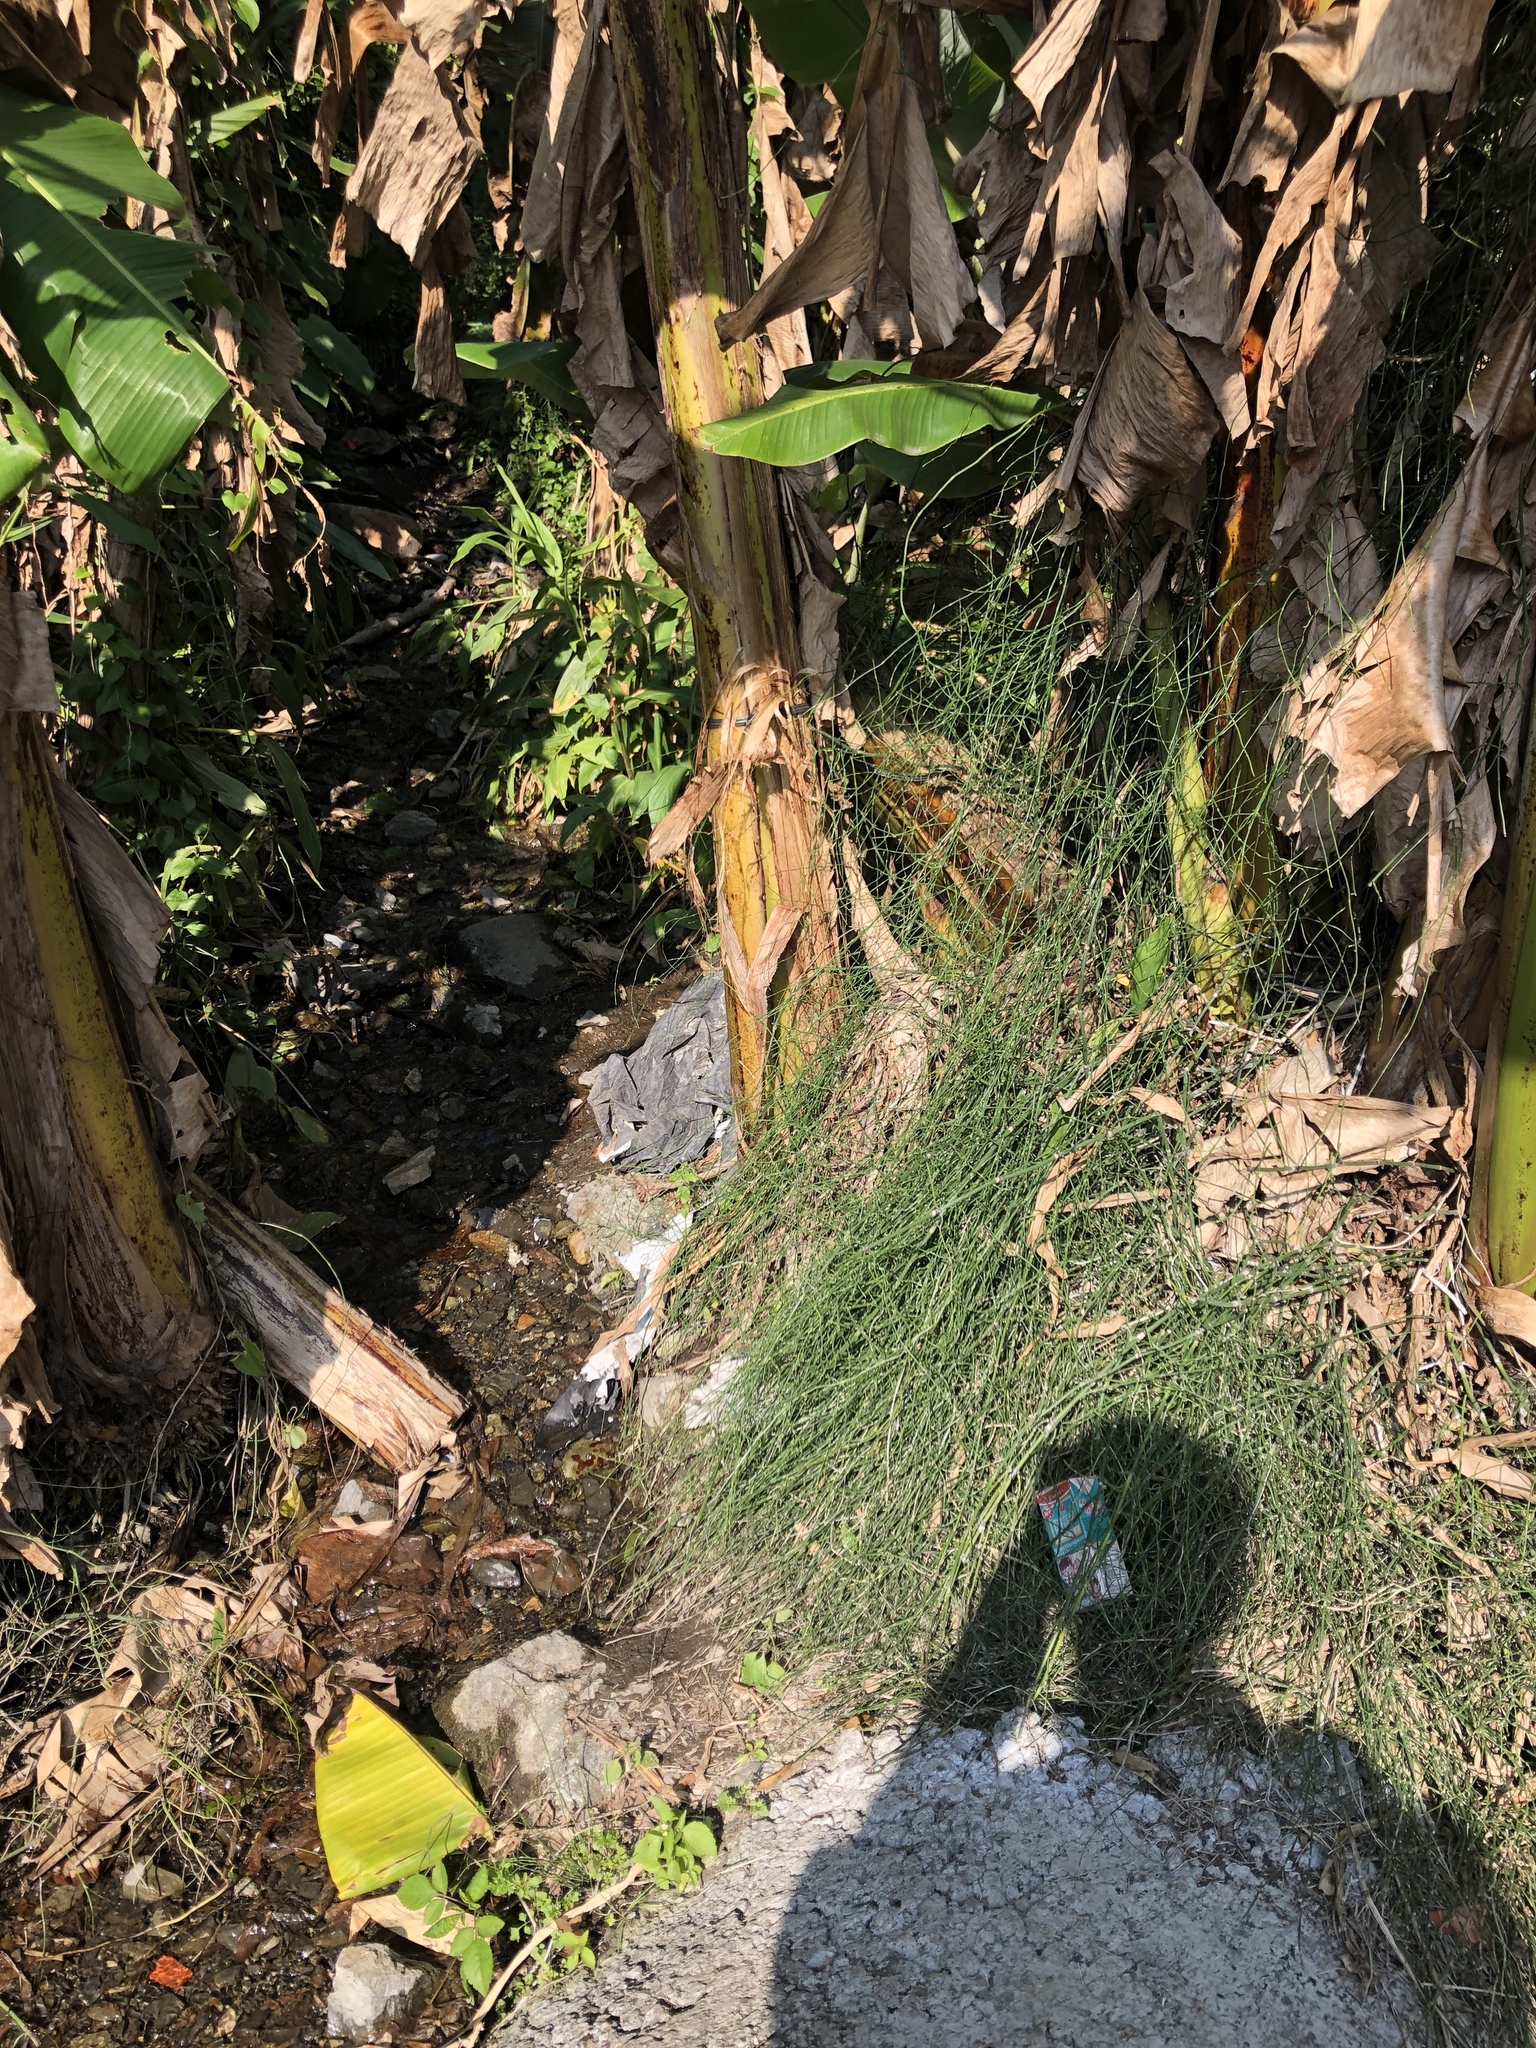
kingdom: Plantae
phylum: Tracheophyta
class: Polypodiopsida
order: Equisetales
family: Equisetaceae
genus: Equisetum
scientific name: Equisetum ramosissimum
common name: Branched horsetail
